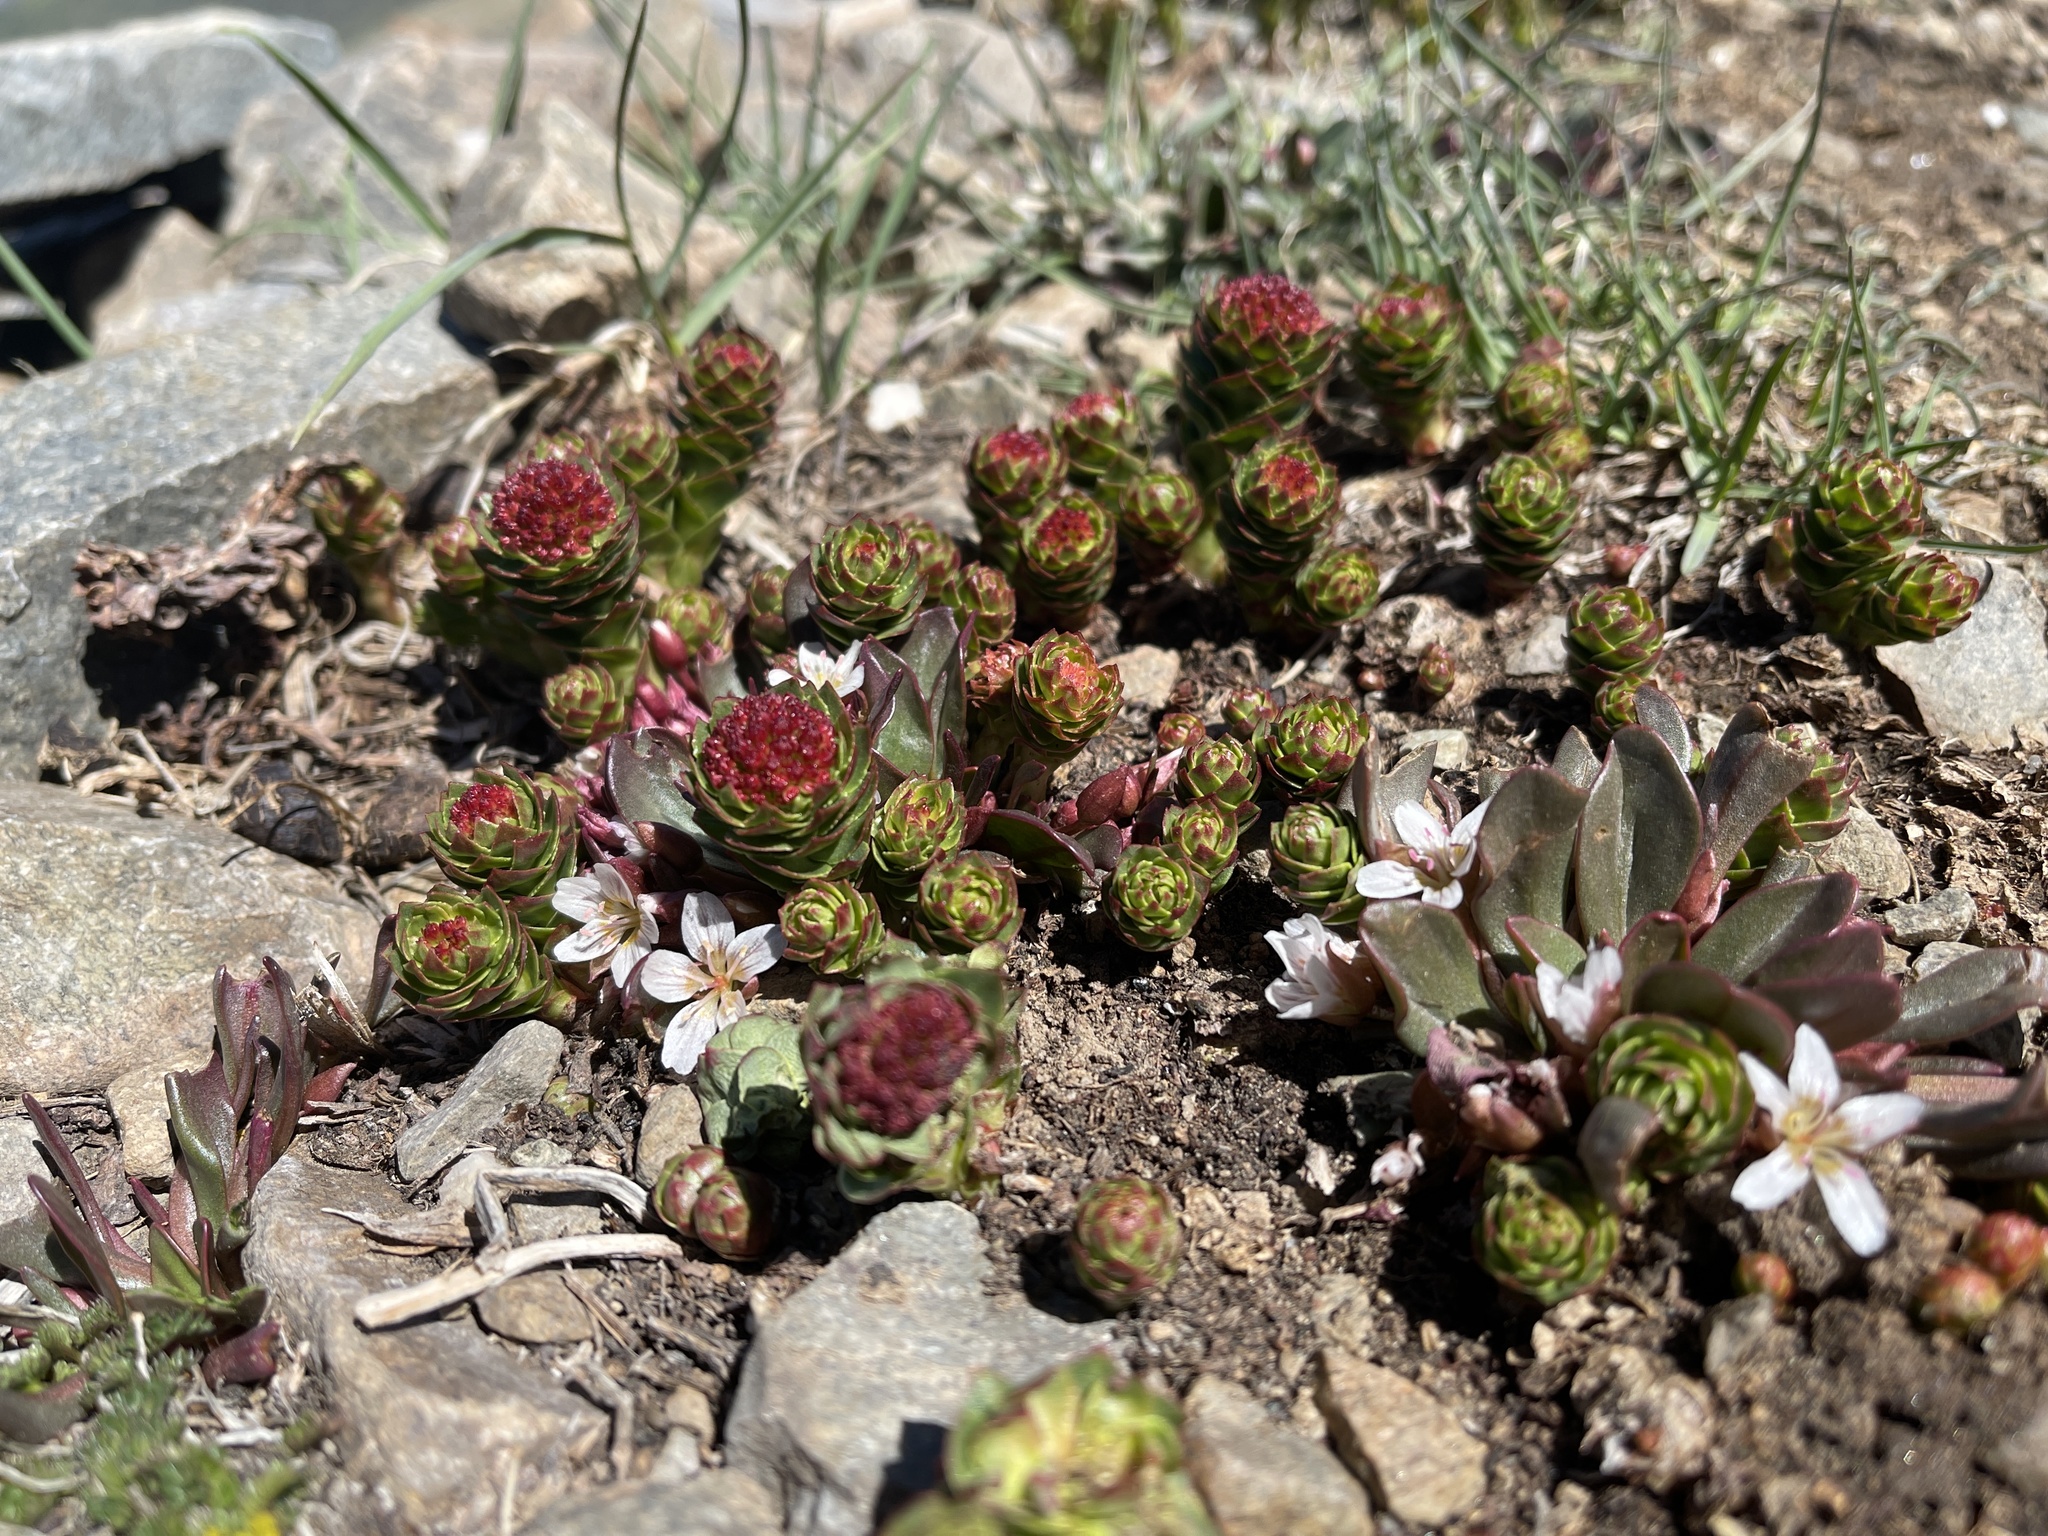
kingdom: Plantae
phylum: Tracheophyta
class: Magnoliopsida
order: Saxifragales
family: Crassulaceae
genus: Rhodiola
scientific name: Rhodiola integrifolia
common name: Western roseroot
